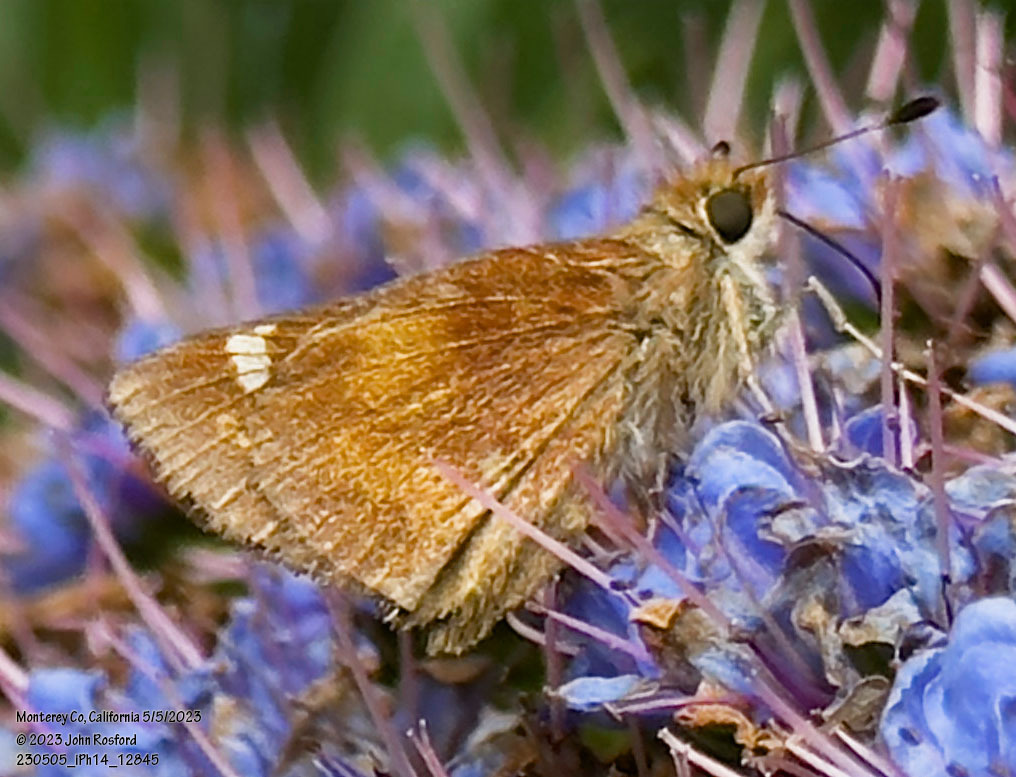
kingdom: Animalia
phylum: Arthropoda
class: Insecta
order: Lepidoptera
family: Hesperiidae
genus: Lon
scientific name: Lon melane
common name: Umber skipper
